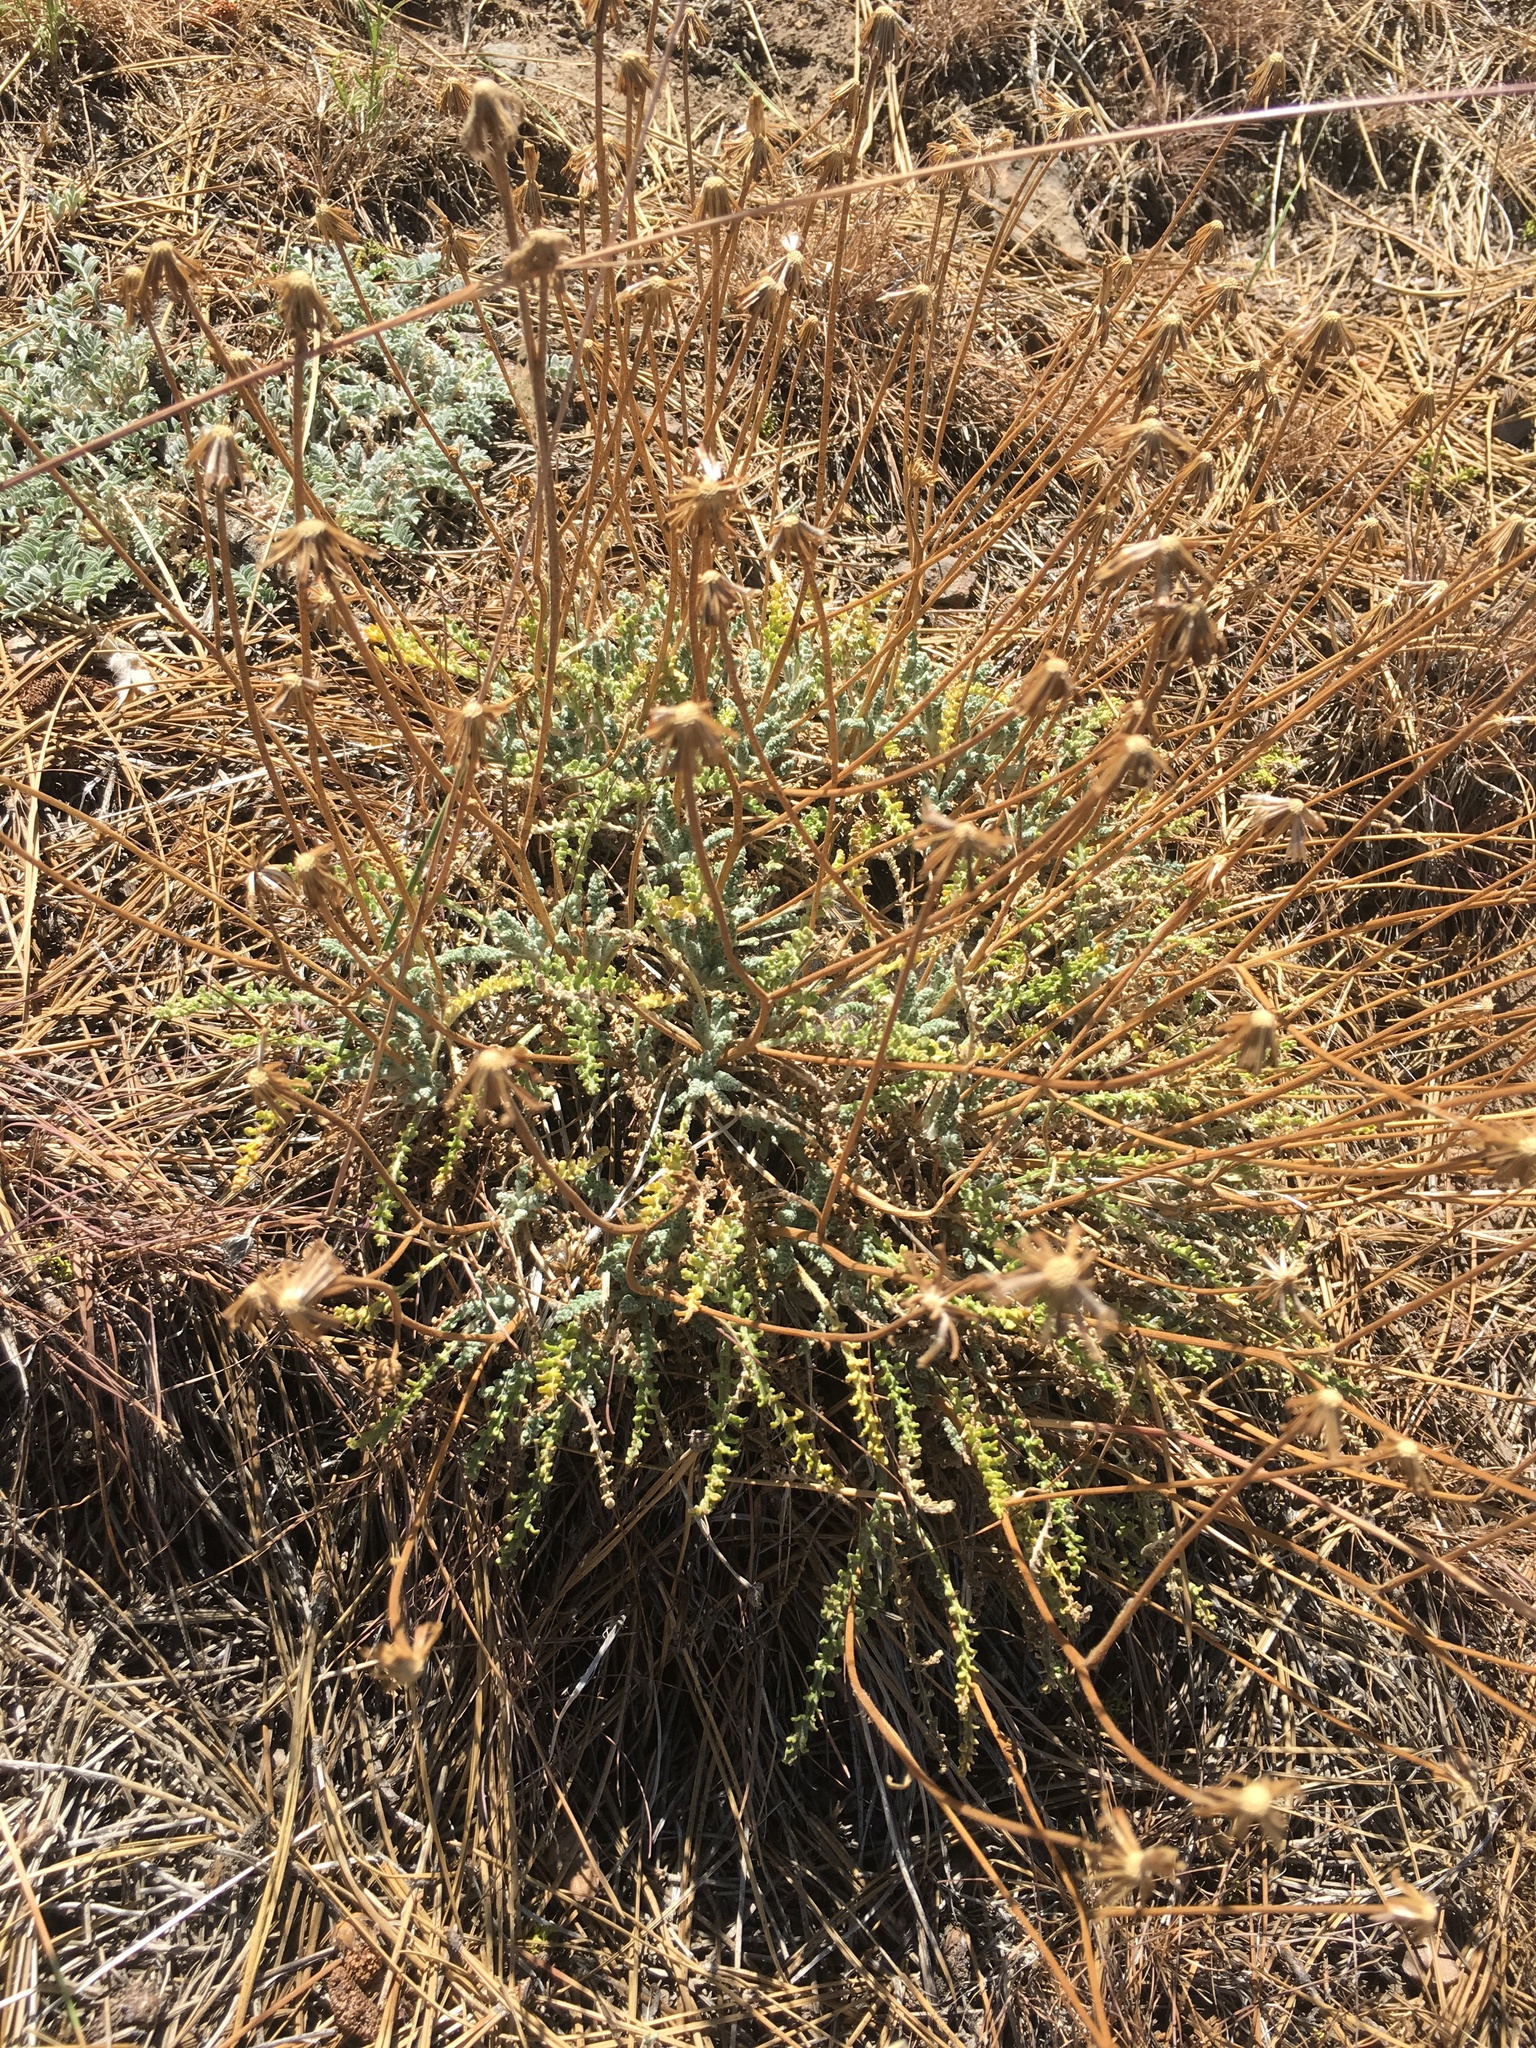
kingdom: Plantae
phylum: Tracheophyta
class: Magnoliopsida
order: Asterales
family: Asteraceae
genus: Chaenactis
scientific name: Chaenactis santolinoides
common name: Santolina pincushion
